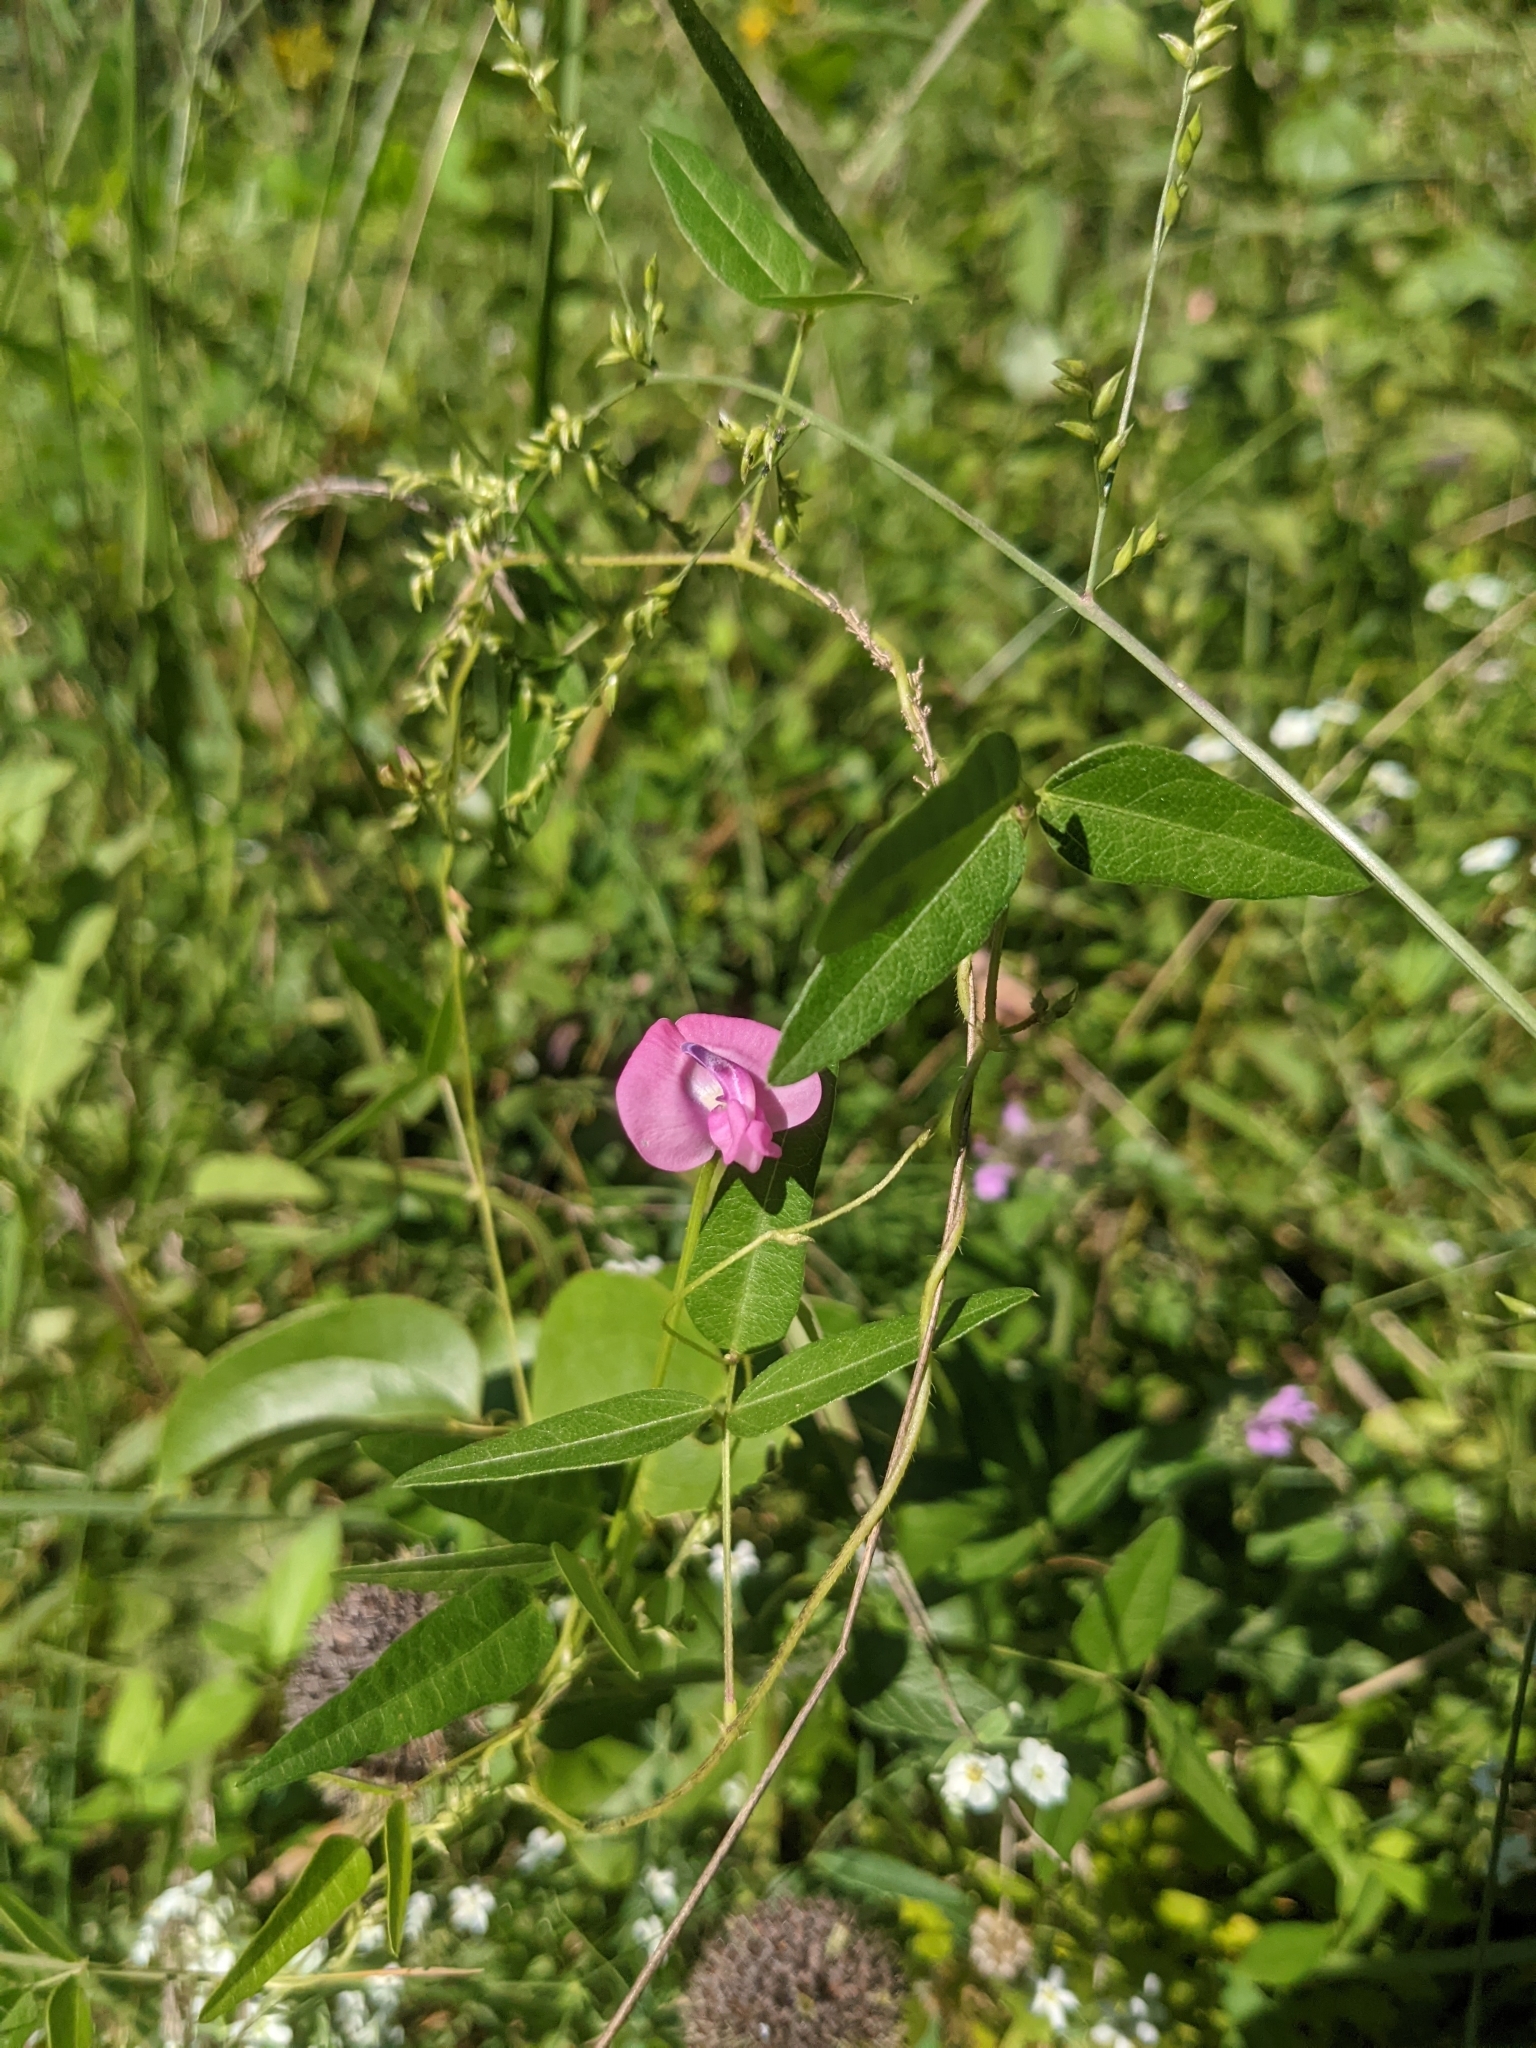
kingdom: Plantae
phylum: Tracheophyta
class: Magnoliopsida
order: Fabales
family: Fabaceae
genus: Strophostyles
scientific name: Strophostyles umbellata
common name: Perennial wild bean
